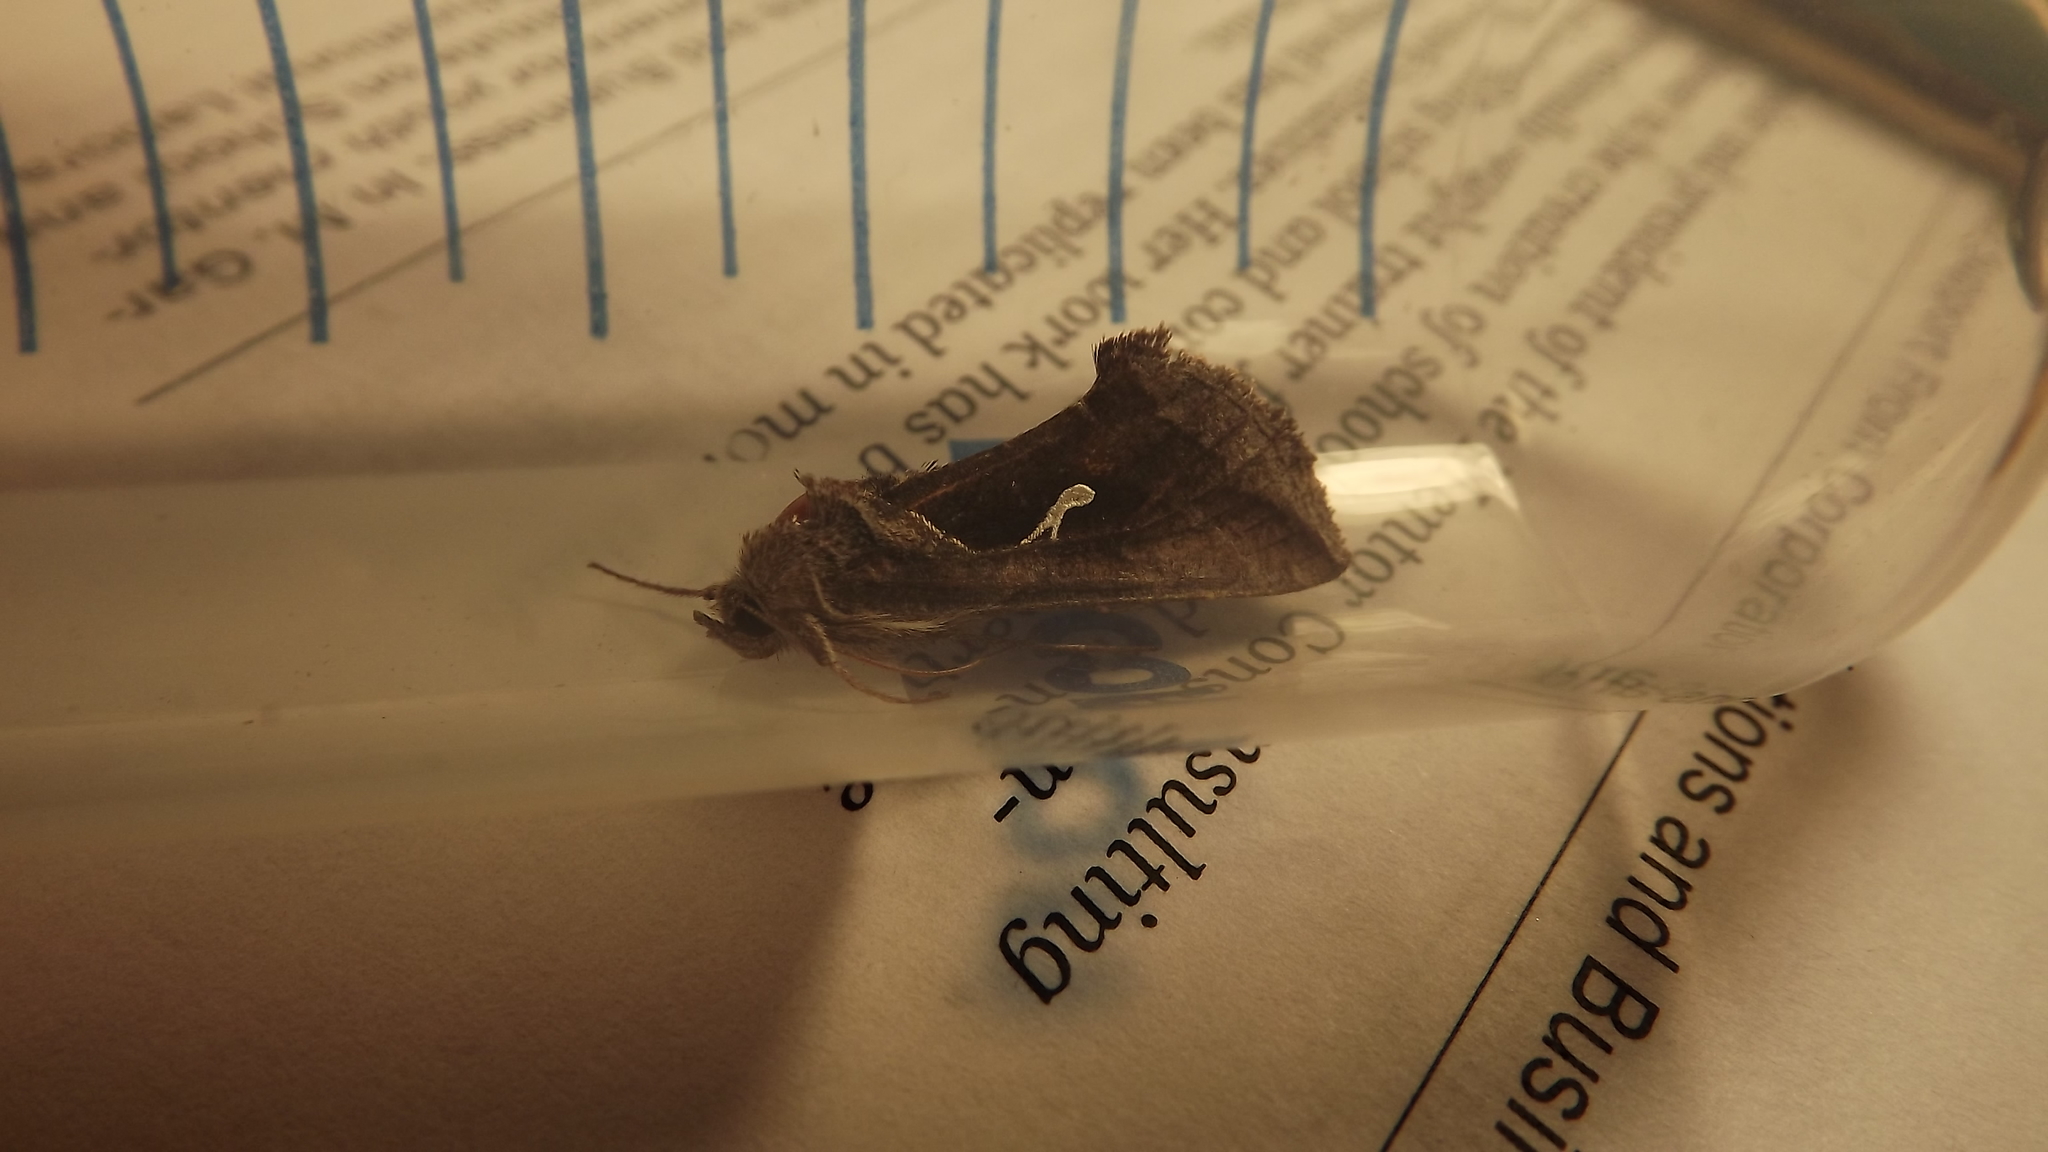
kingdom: Animalia
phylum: Arthropoda
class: Insecta
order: Lepidoptera
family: Noctuidae
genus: Anagrapha
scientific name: Anagrapha falcifera
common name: Celery looper
